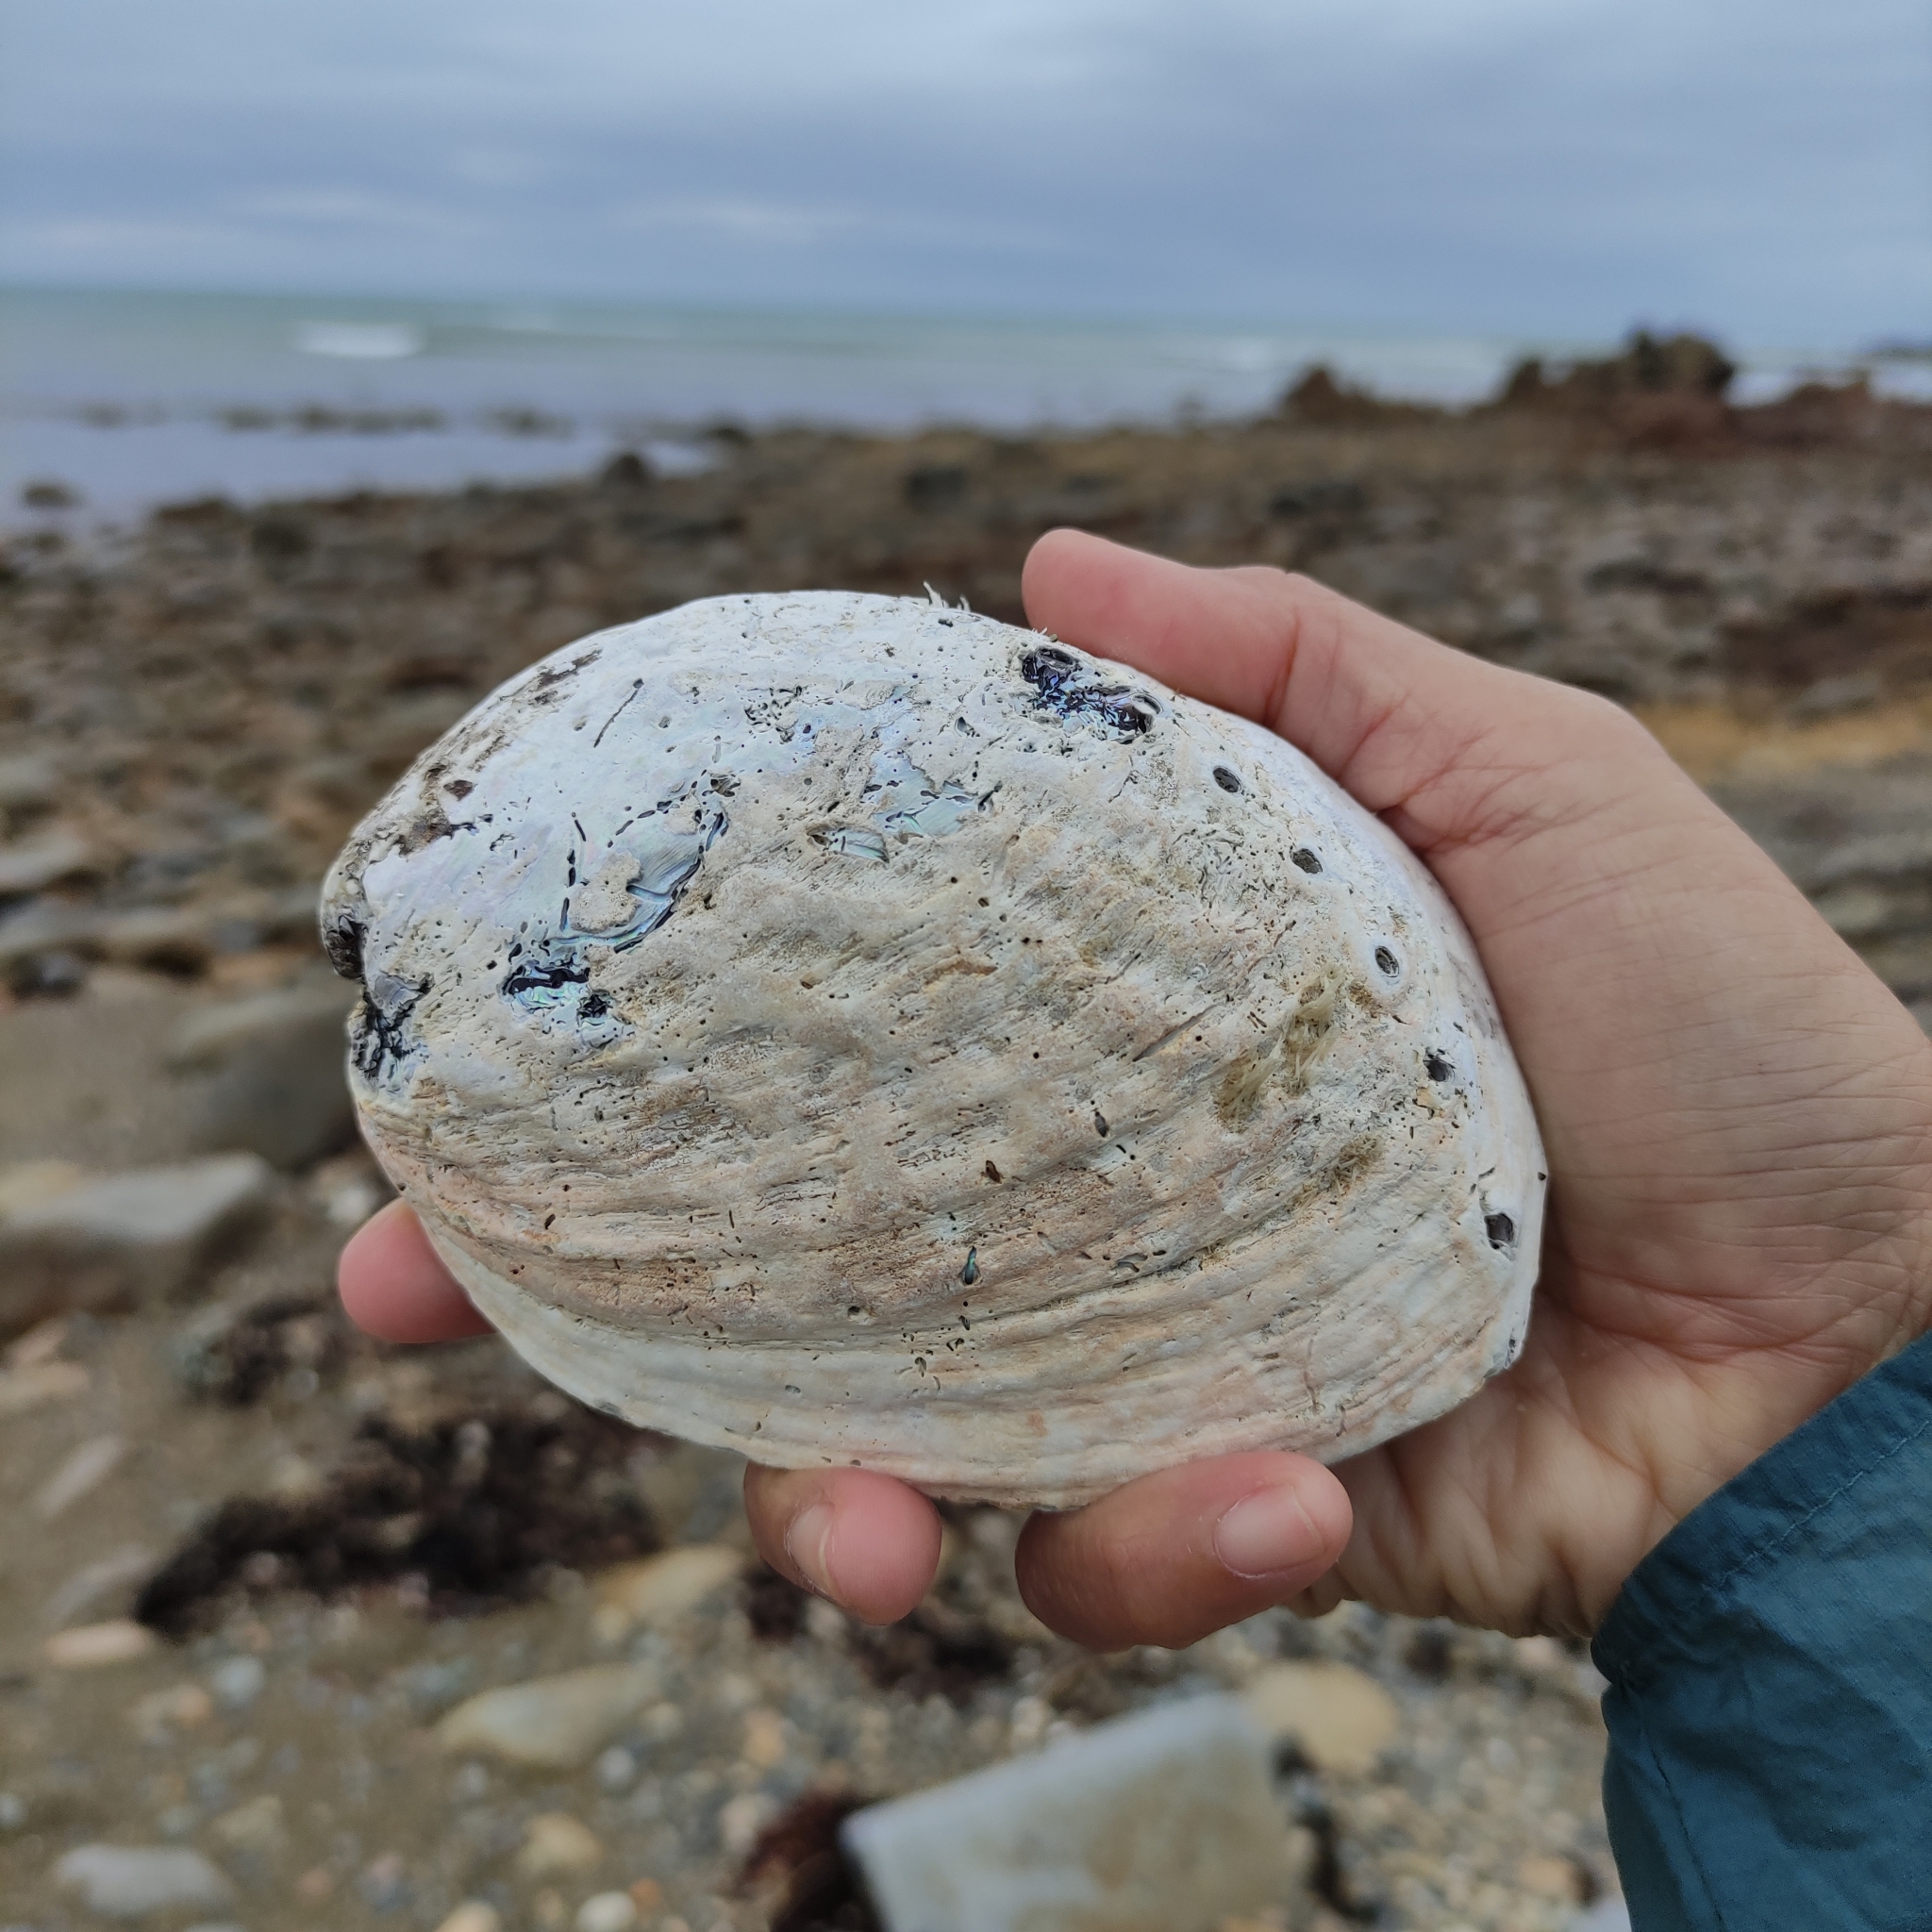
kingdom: Animalia
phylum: Mollusca
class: Gastropoda
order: Lepetellida
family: Haliotidae
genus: Haliotis
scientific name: Haliotis iris
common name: Abalone
